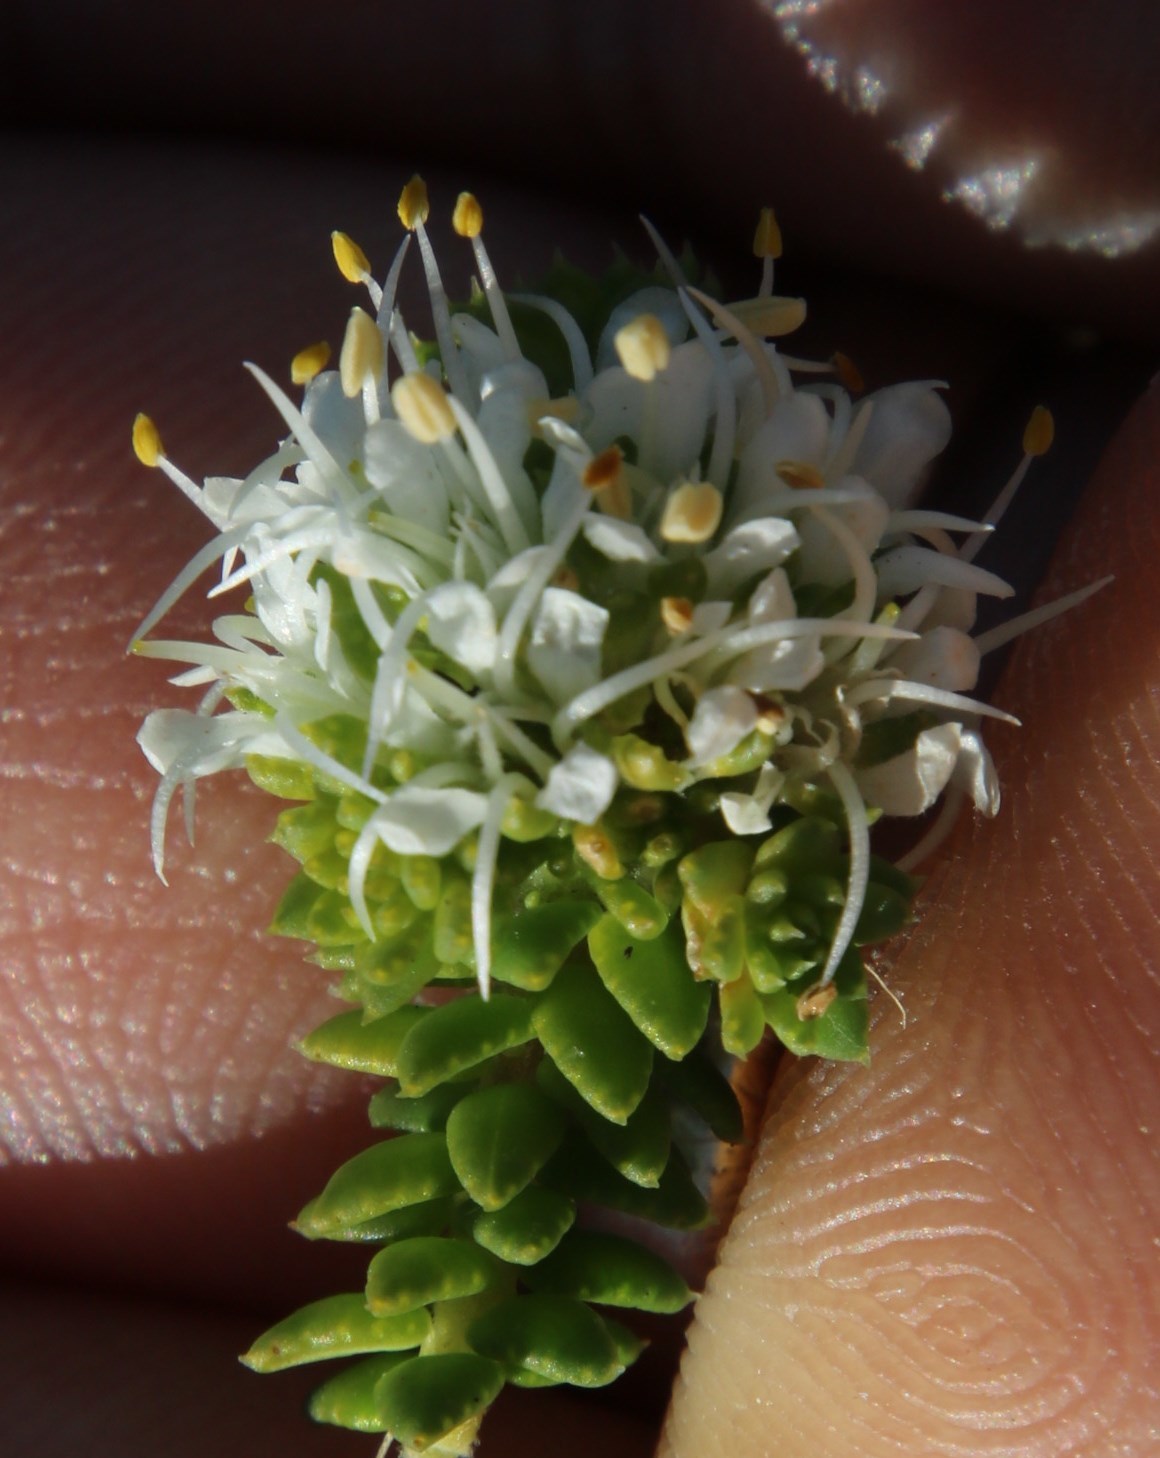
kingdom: Plantae
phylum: Tracheophyta
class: Magnoliopsida
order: Sapindales
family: Rutaceae
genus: Agathosma
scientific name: Agathosma apiculata
